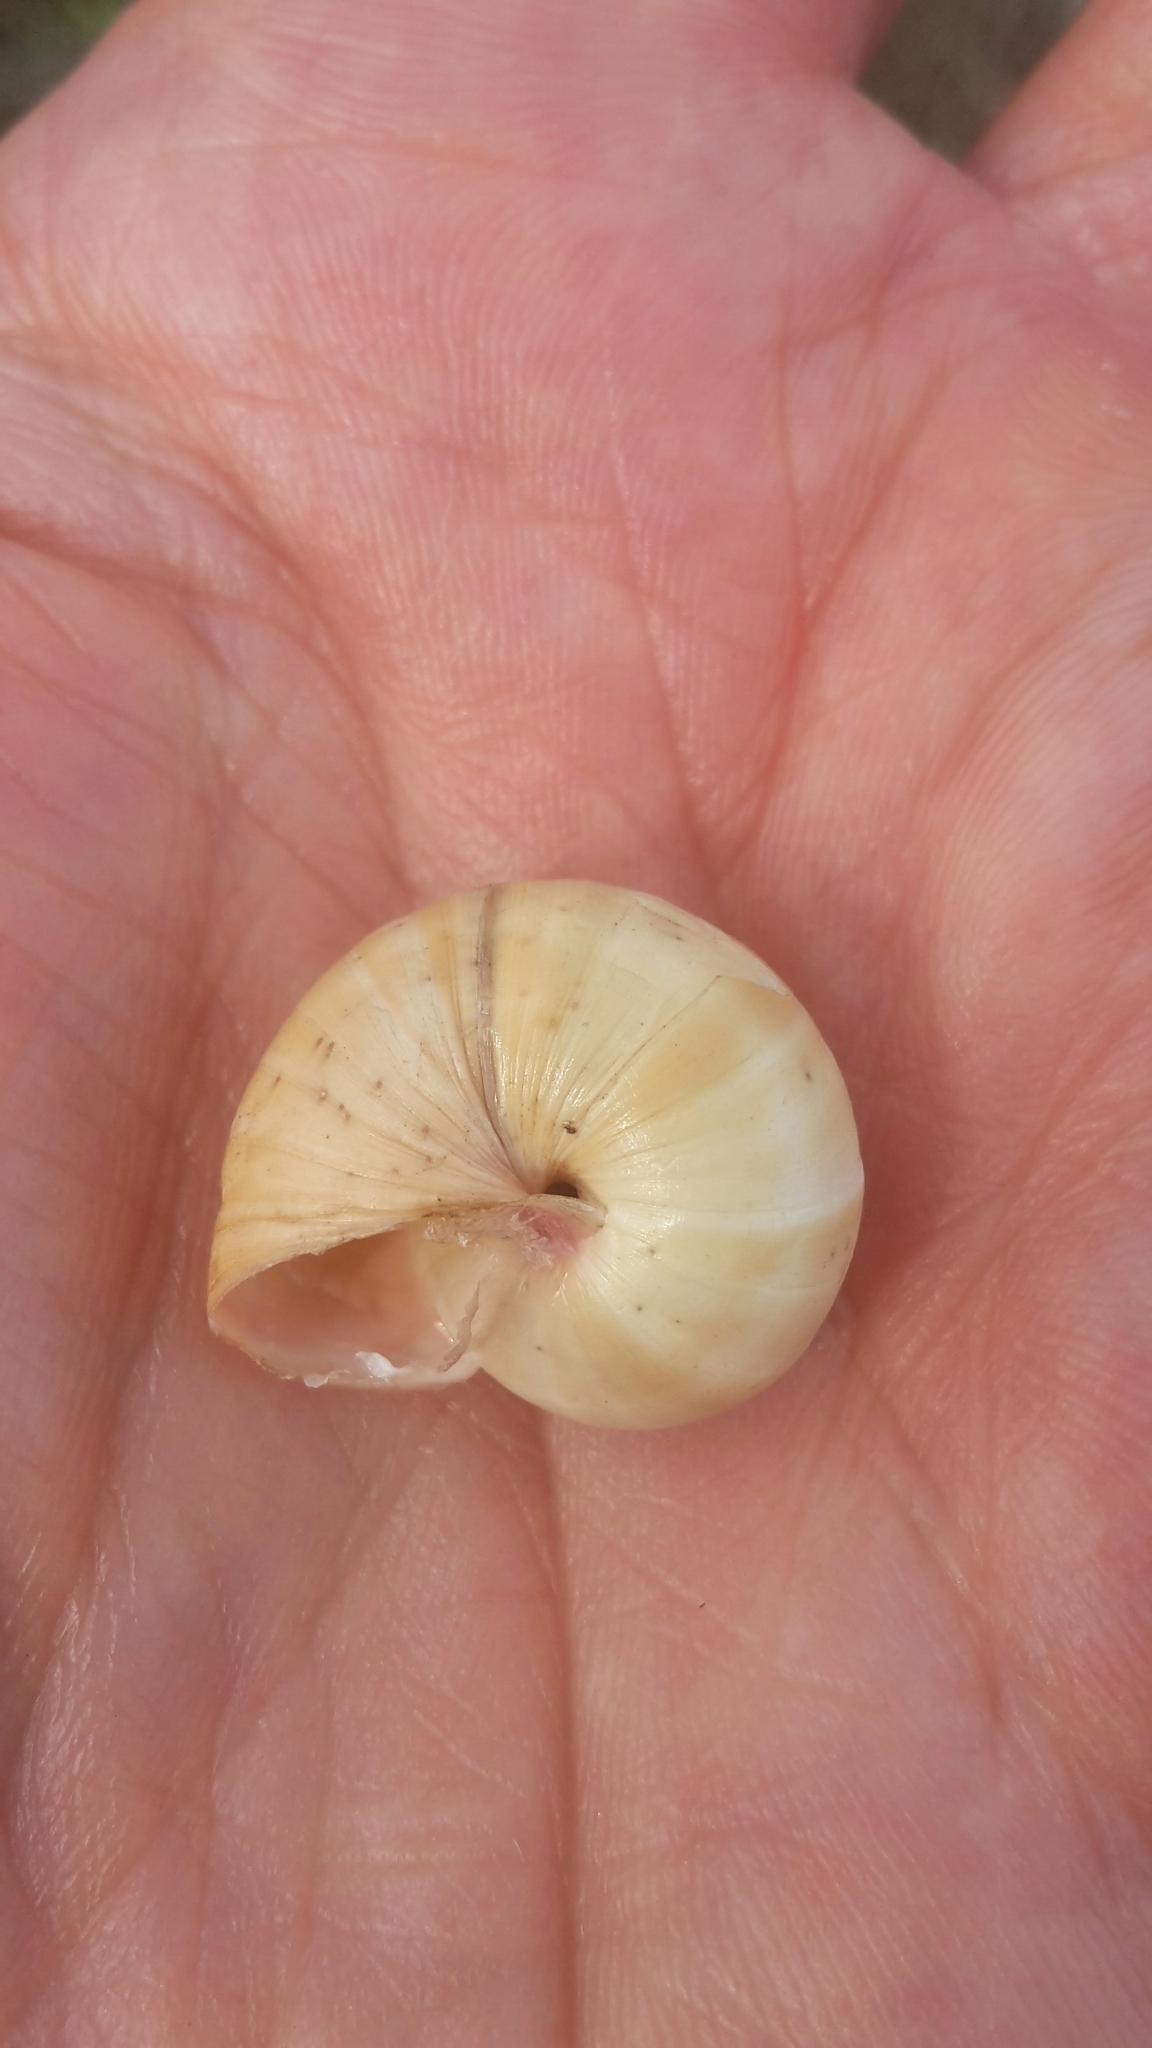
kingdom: Animalia
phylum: Mollusca
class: Gastropoda
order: Stylommatophora
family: Helicidae
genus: Theba
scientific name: Theba pisana
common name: White snail
